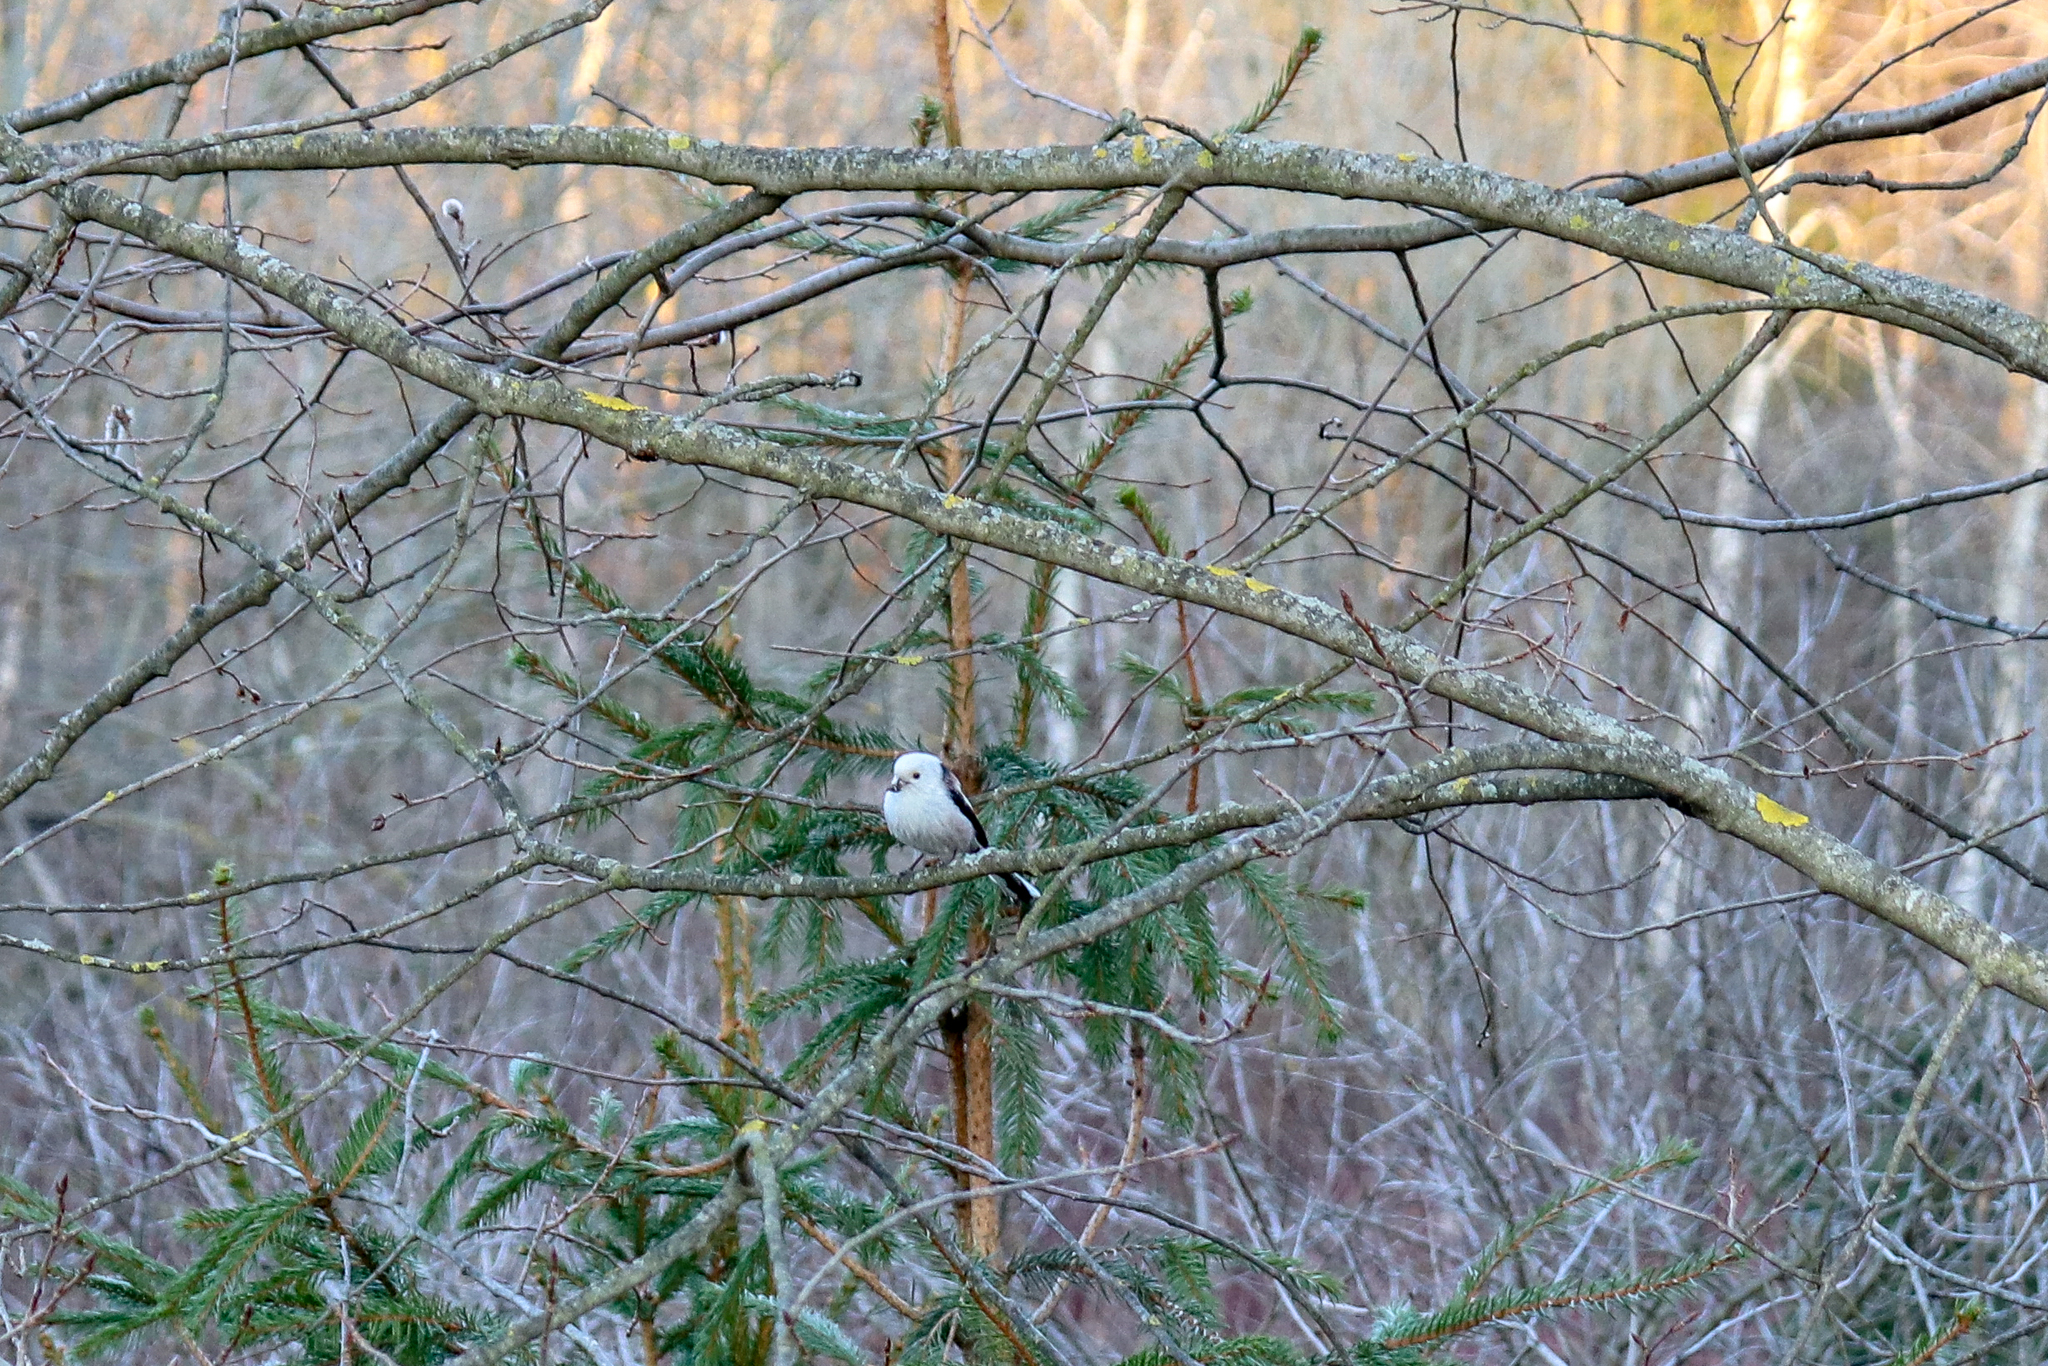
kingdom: Animalia
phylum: Chordata
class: Aves
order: Passeriformes
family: Aegithalidae
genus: Aegithalos
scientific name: Aegithalos caudatus
